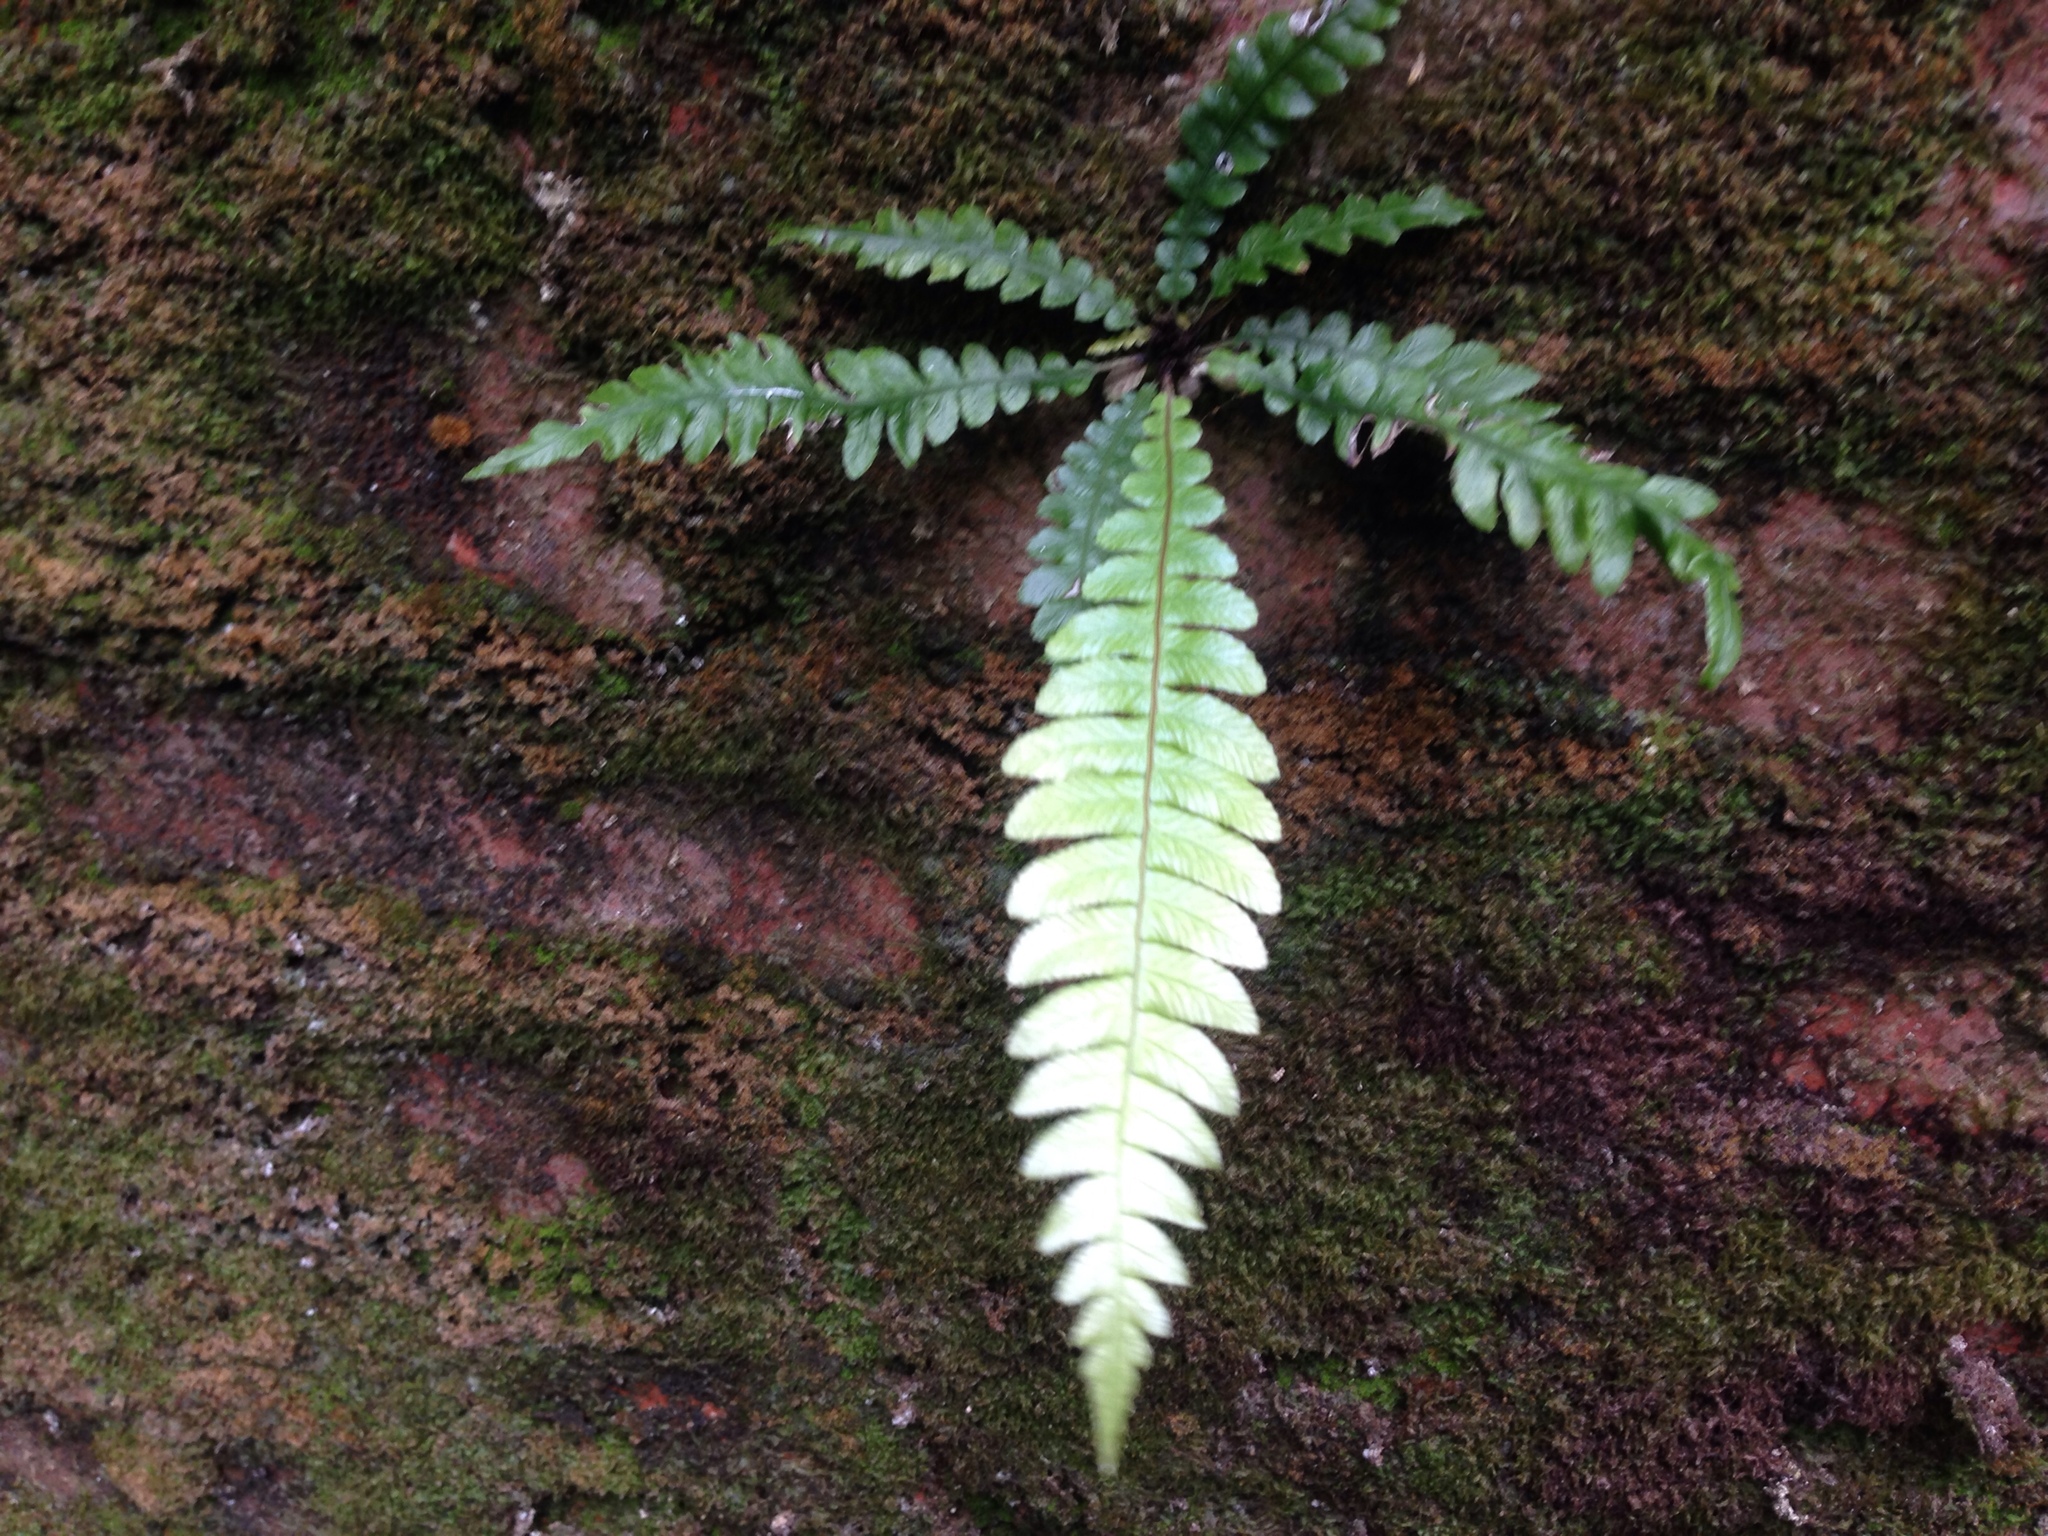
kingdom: Plantae
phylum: Tracheophyta
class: Polypodiopsida
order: Polypodiales
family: Blechnaceae
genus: Austroblechnum
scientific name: Austroblechnum lanceolatum
